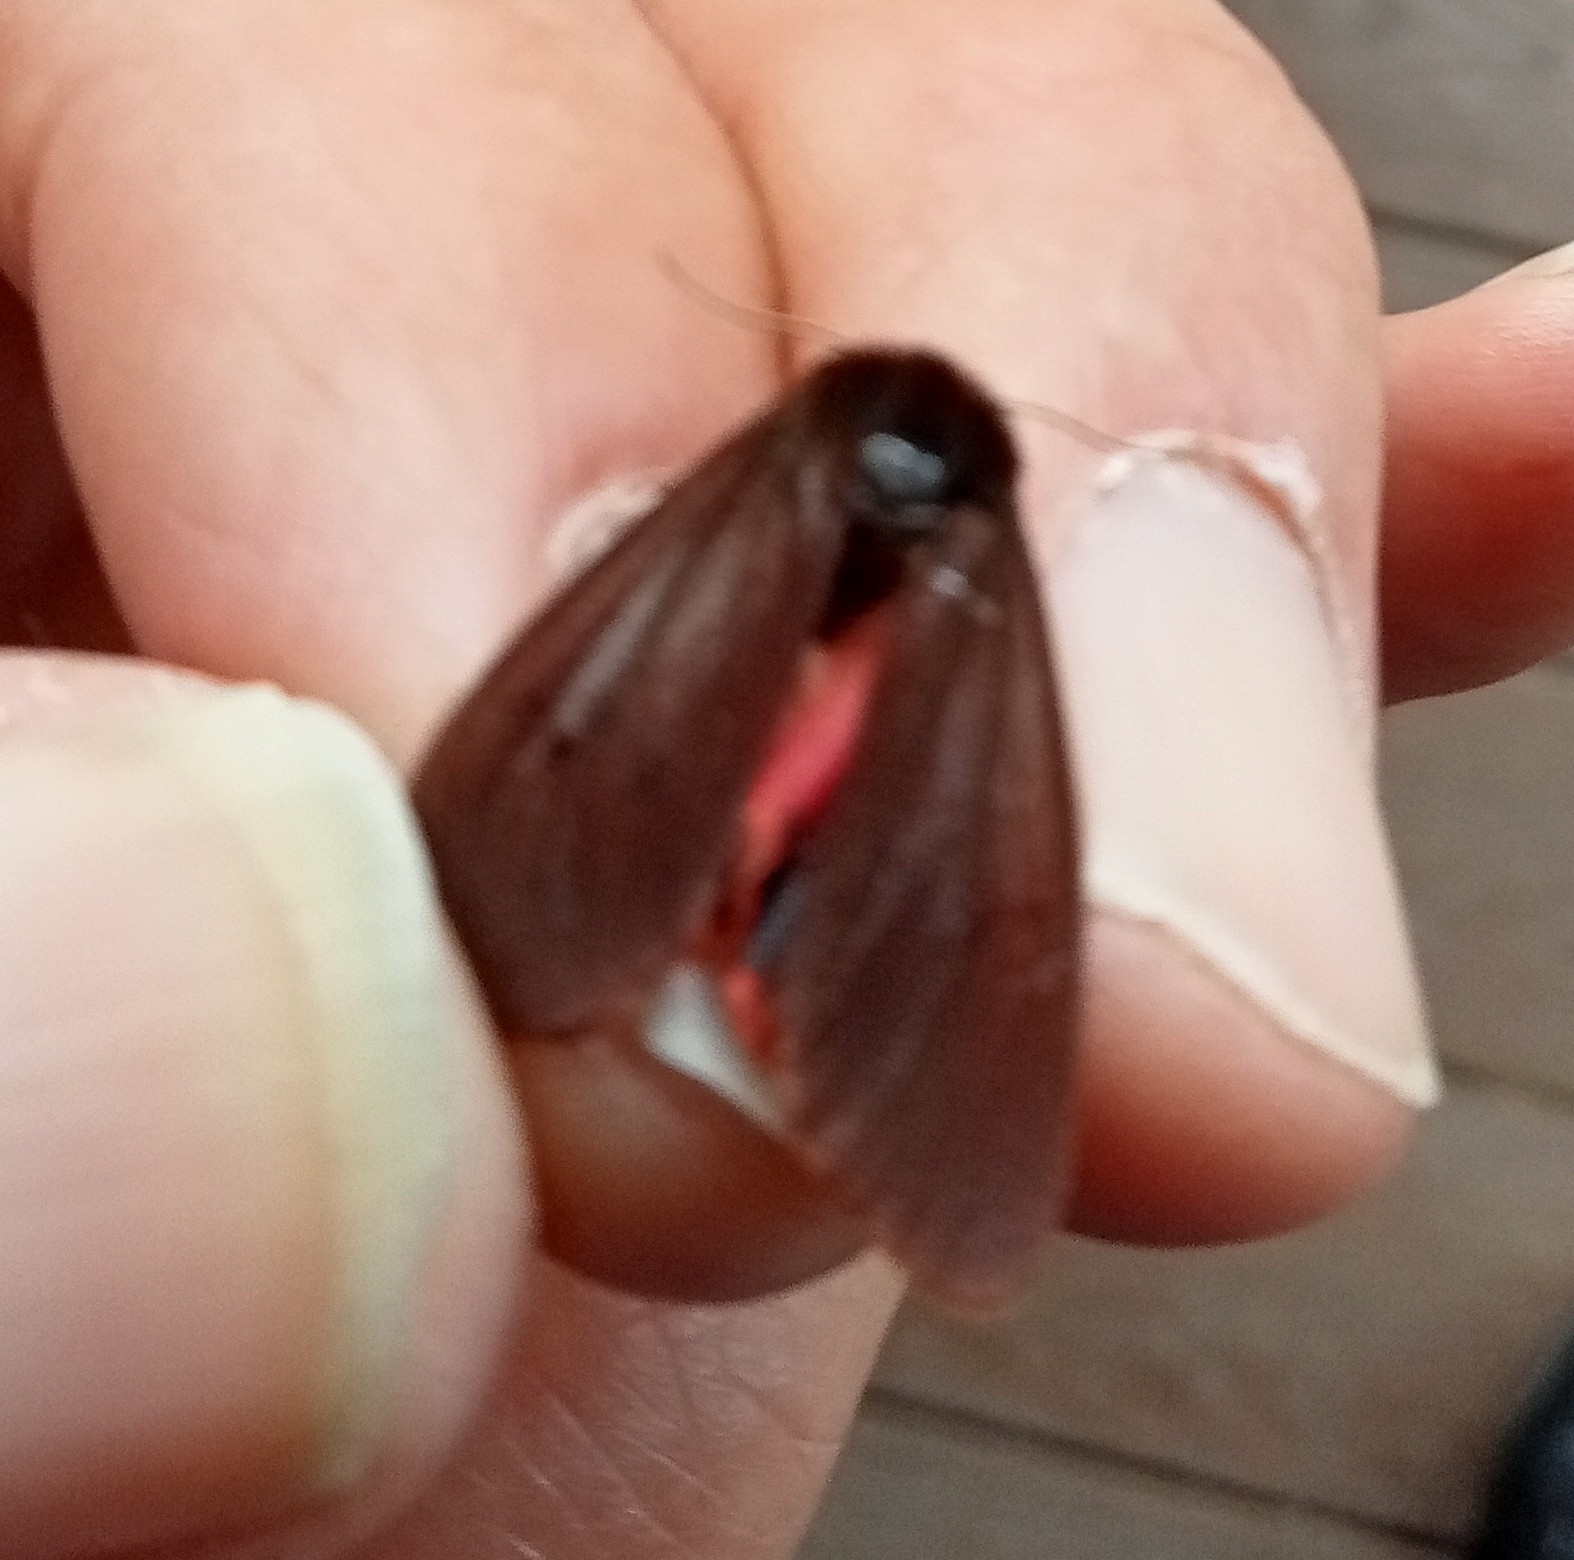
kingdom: Animalia
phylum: Arthropoda
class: Insecta
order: Lepidoptera
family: Erebidae
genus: Phragmatobia
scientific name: Phragmatobia fuliginosa
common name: Ruby tiger
